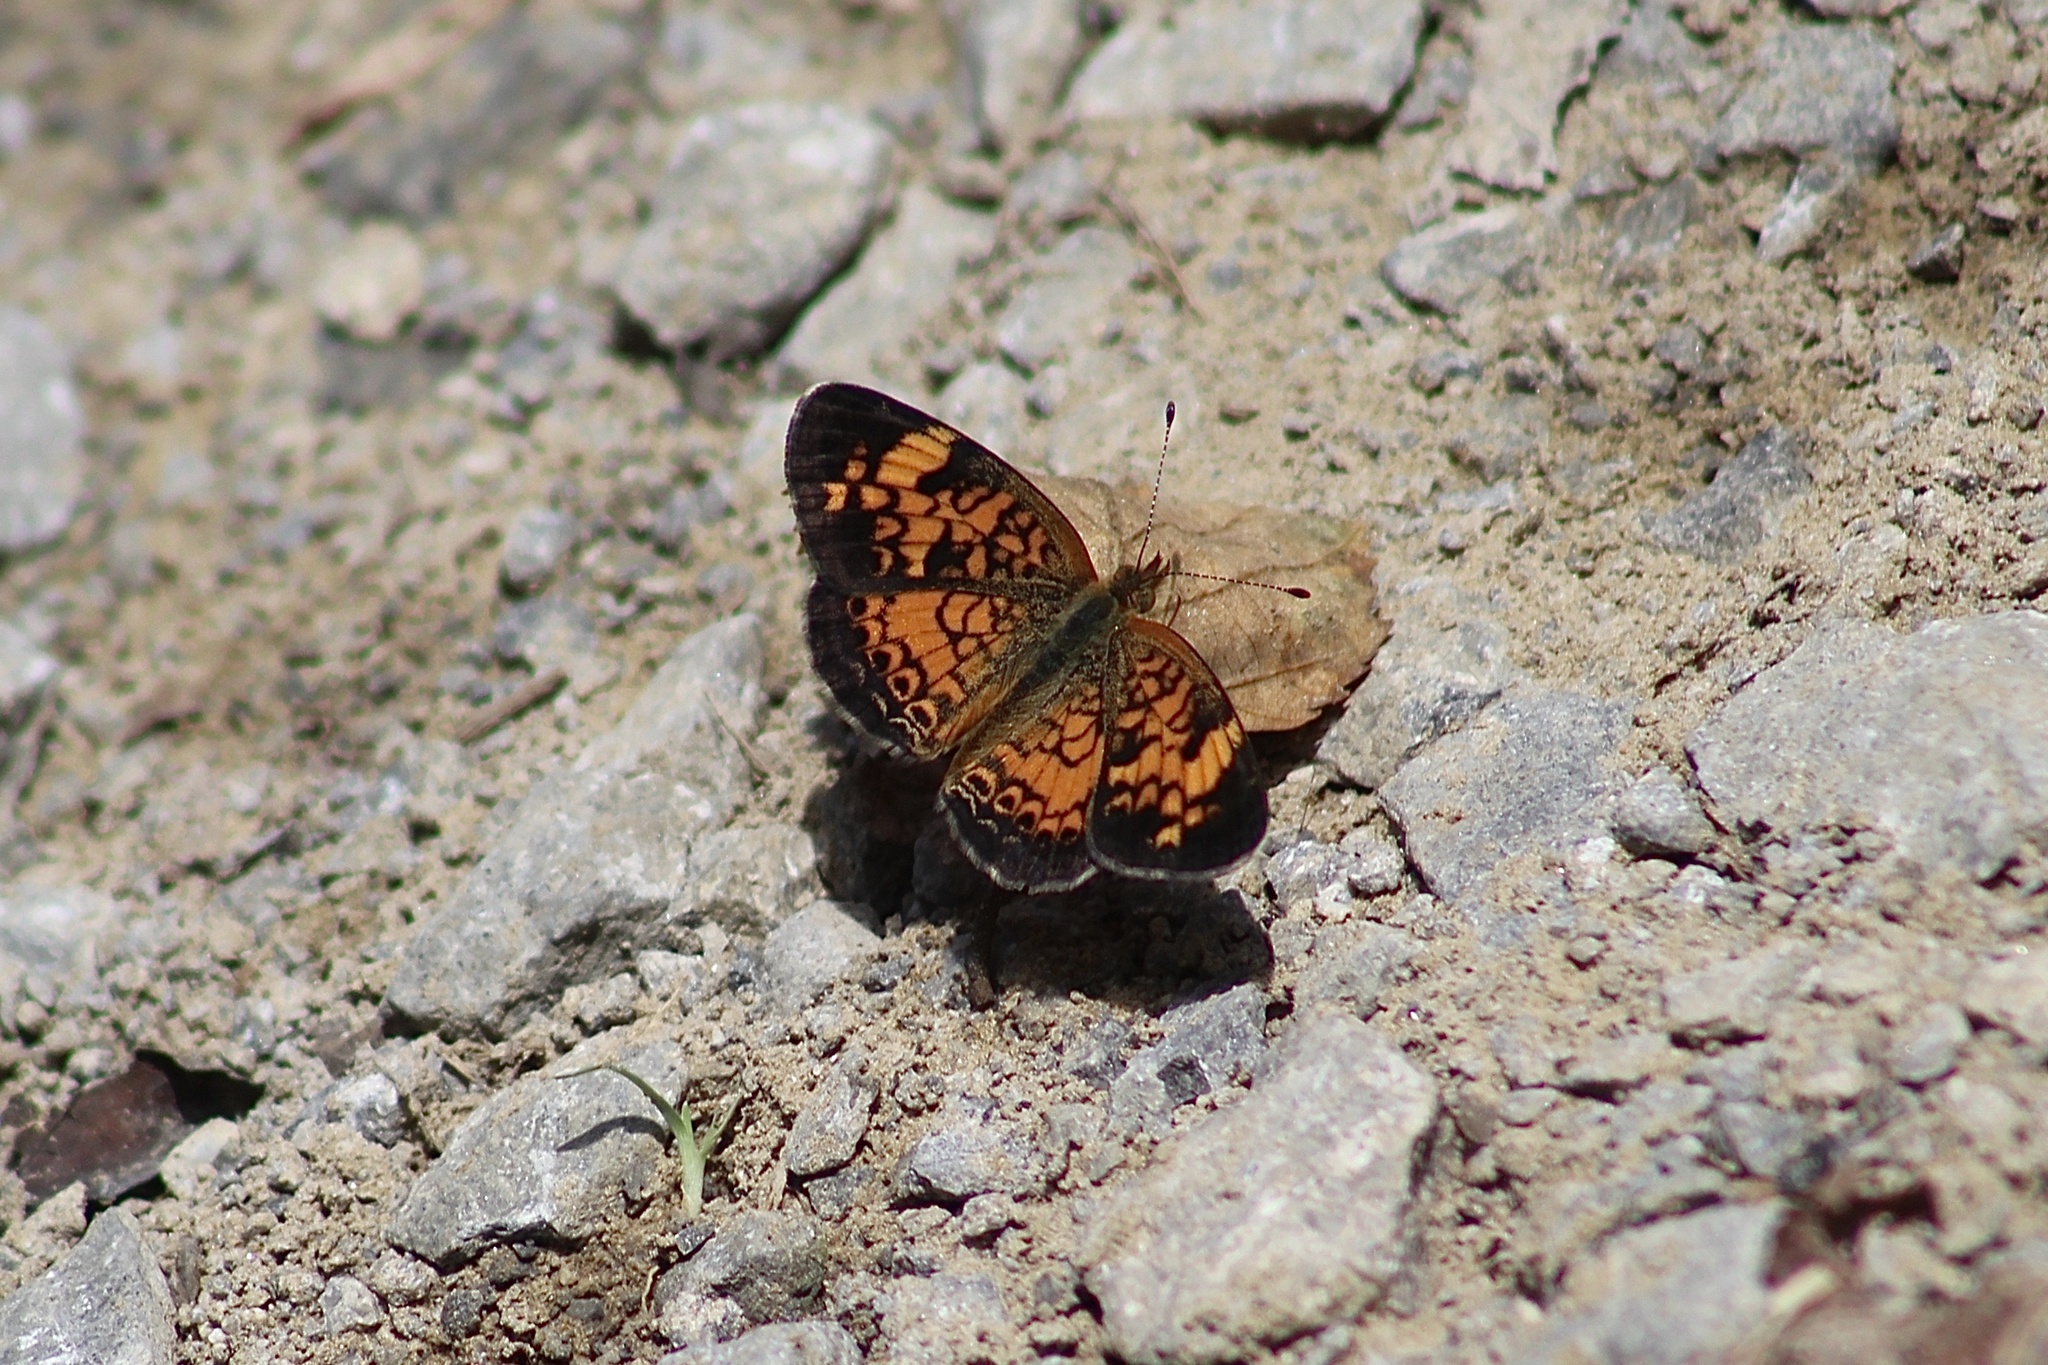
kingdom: Animalia
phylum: Arthropoda
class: Insecta
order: Lepidoptera
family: Nymphalidae
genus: Phyciodes
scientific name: Phyciodes tharos
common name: Pearl crescent
